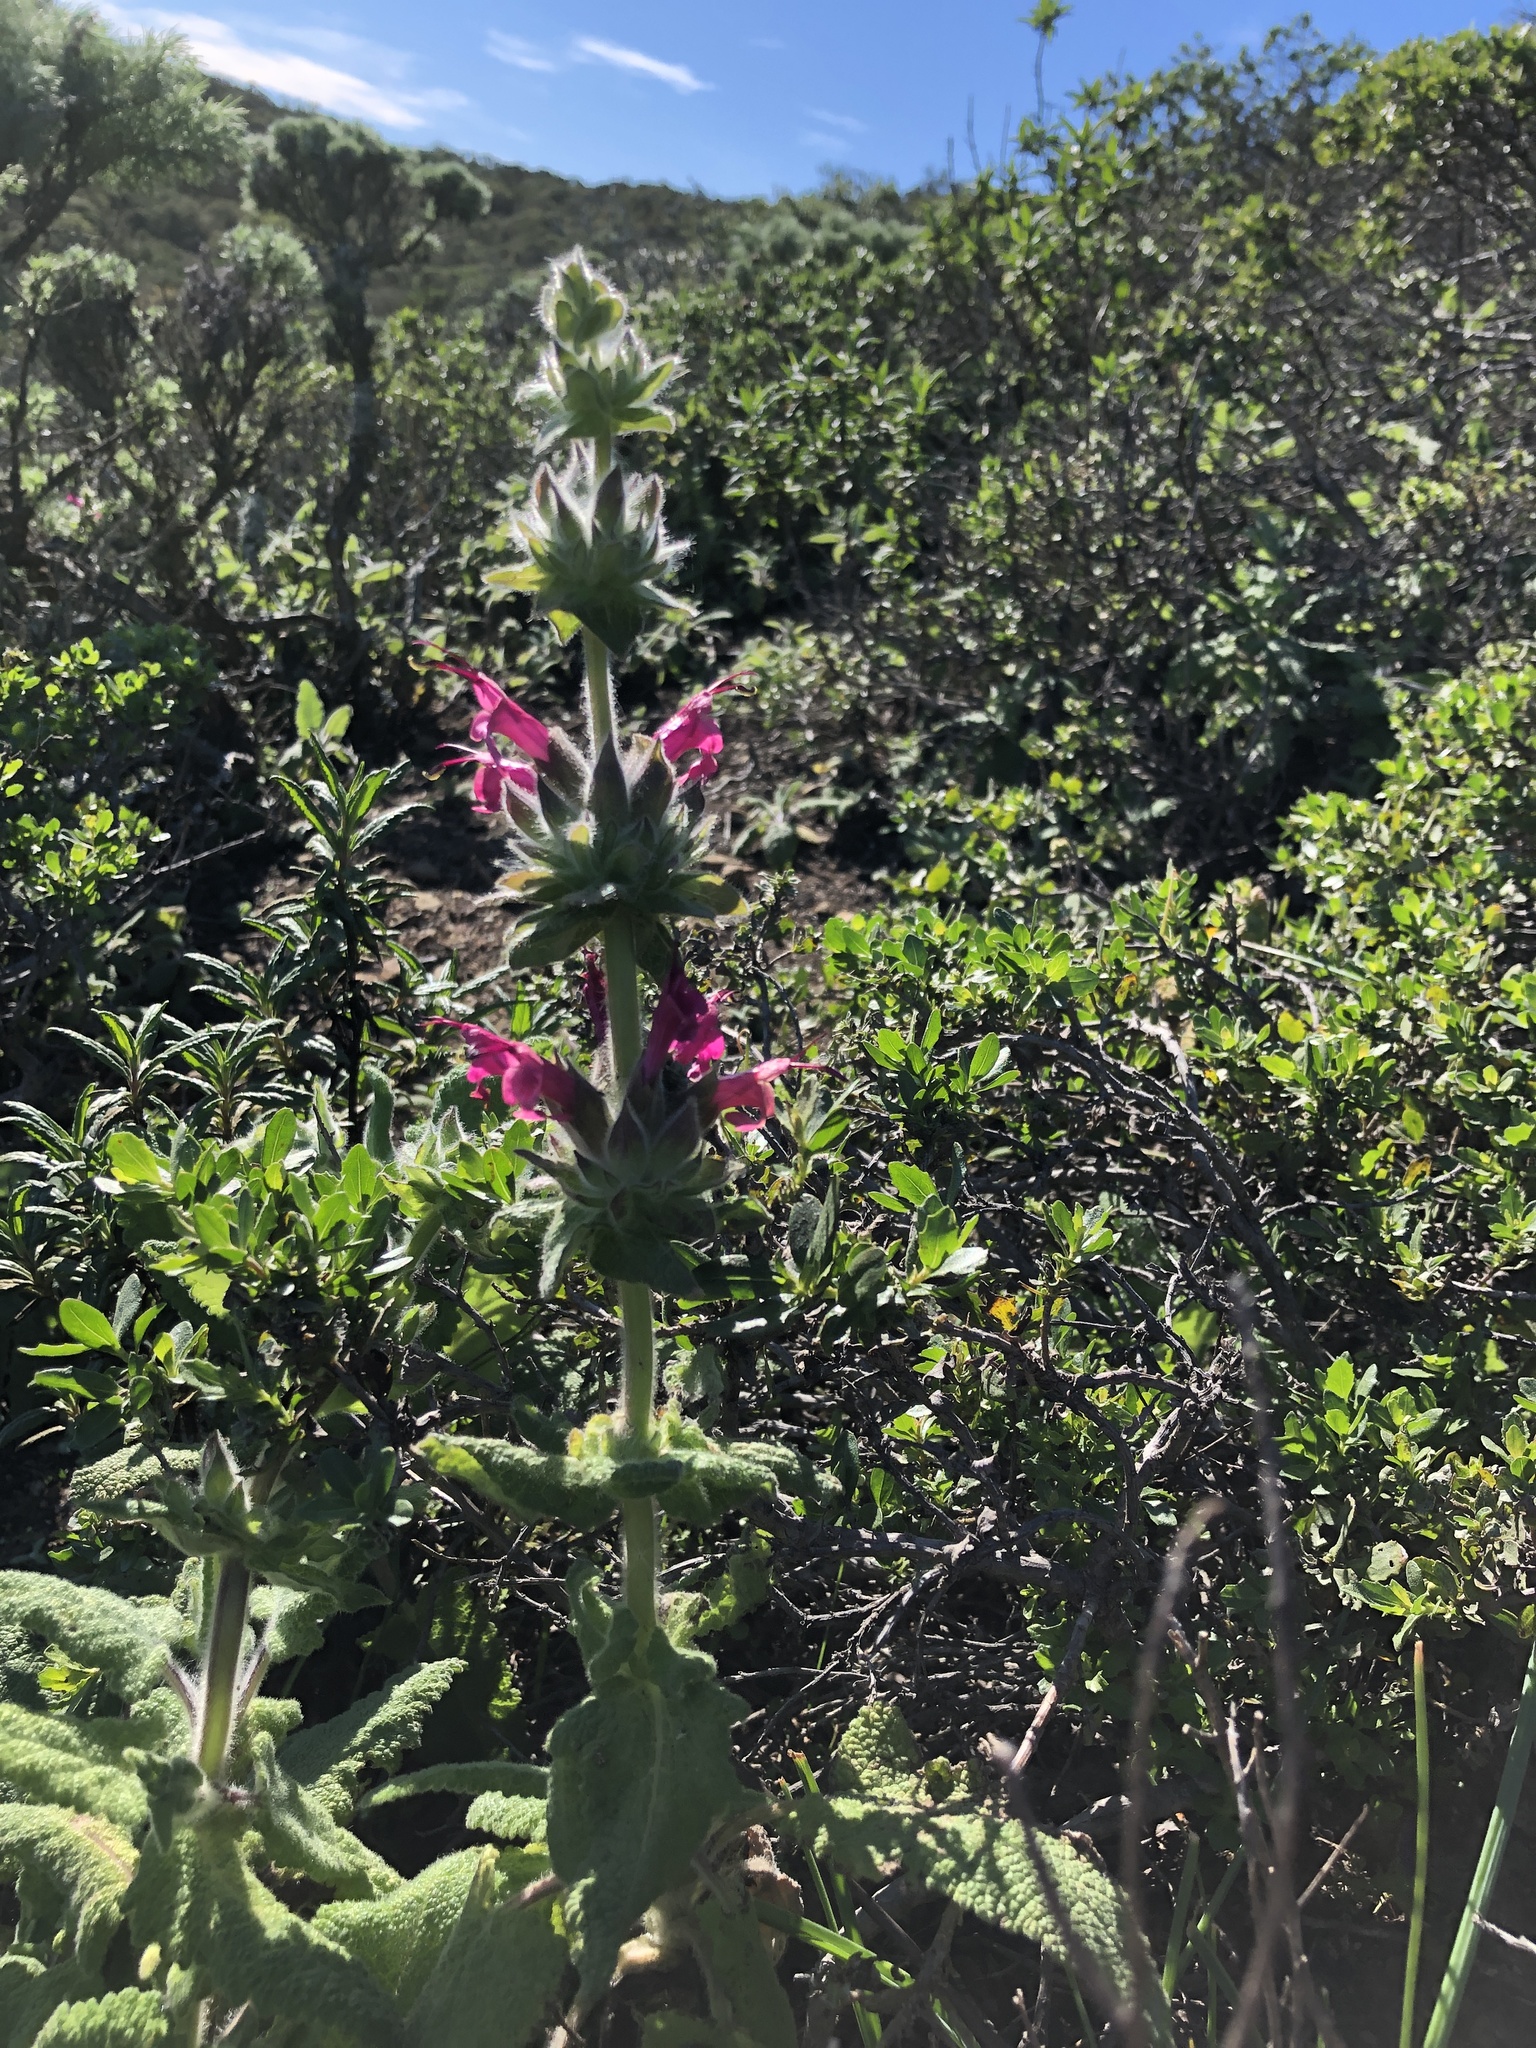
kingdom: Plantae
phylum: Tracheophyta
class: Magnoliopsida
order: Lamiales
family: Lamiaceae
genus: Salvia
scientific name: Salvia spathacea
